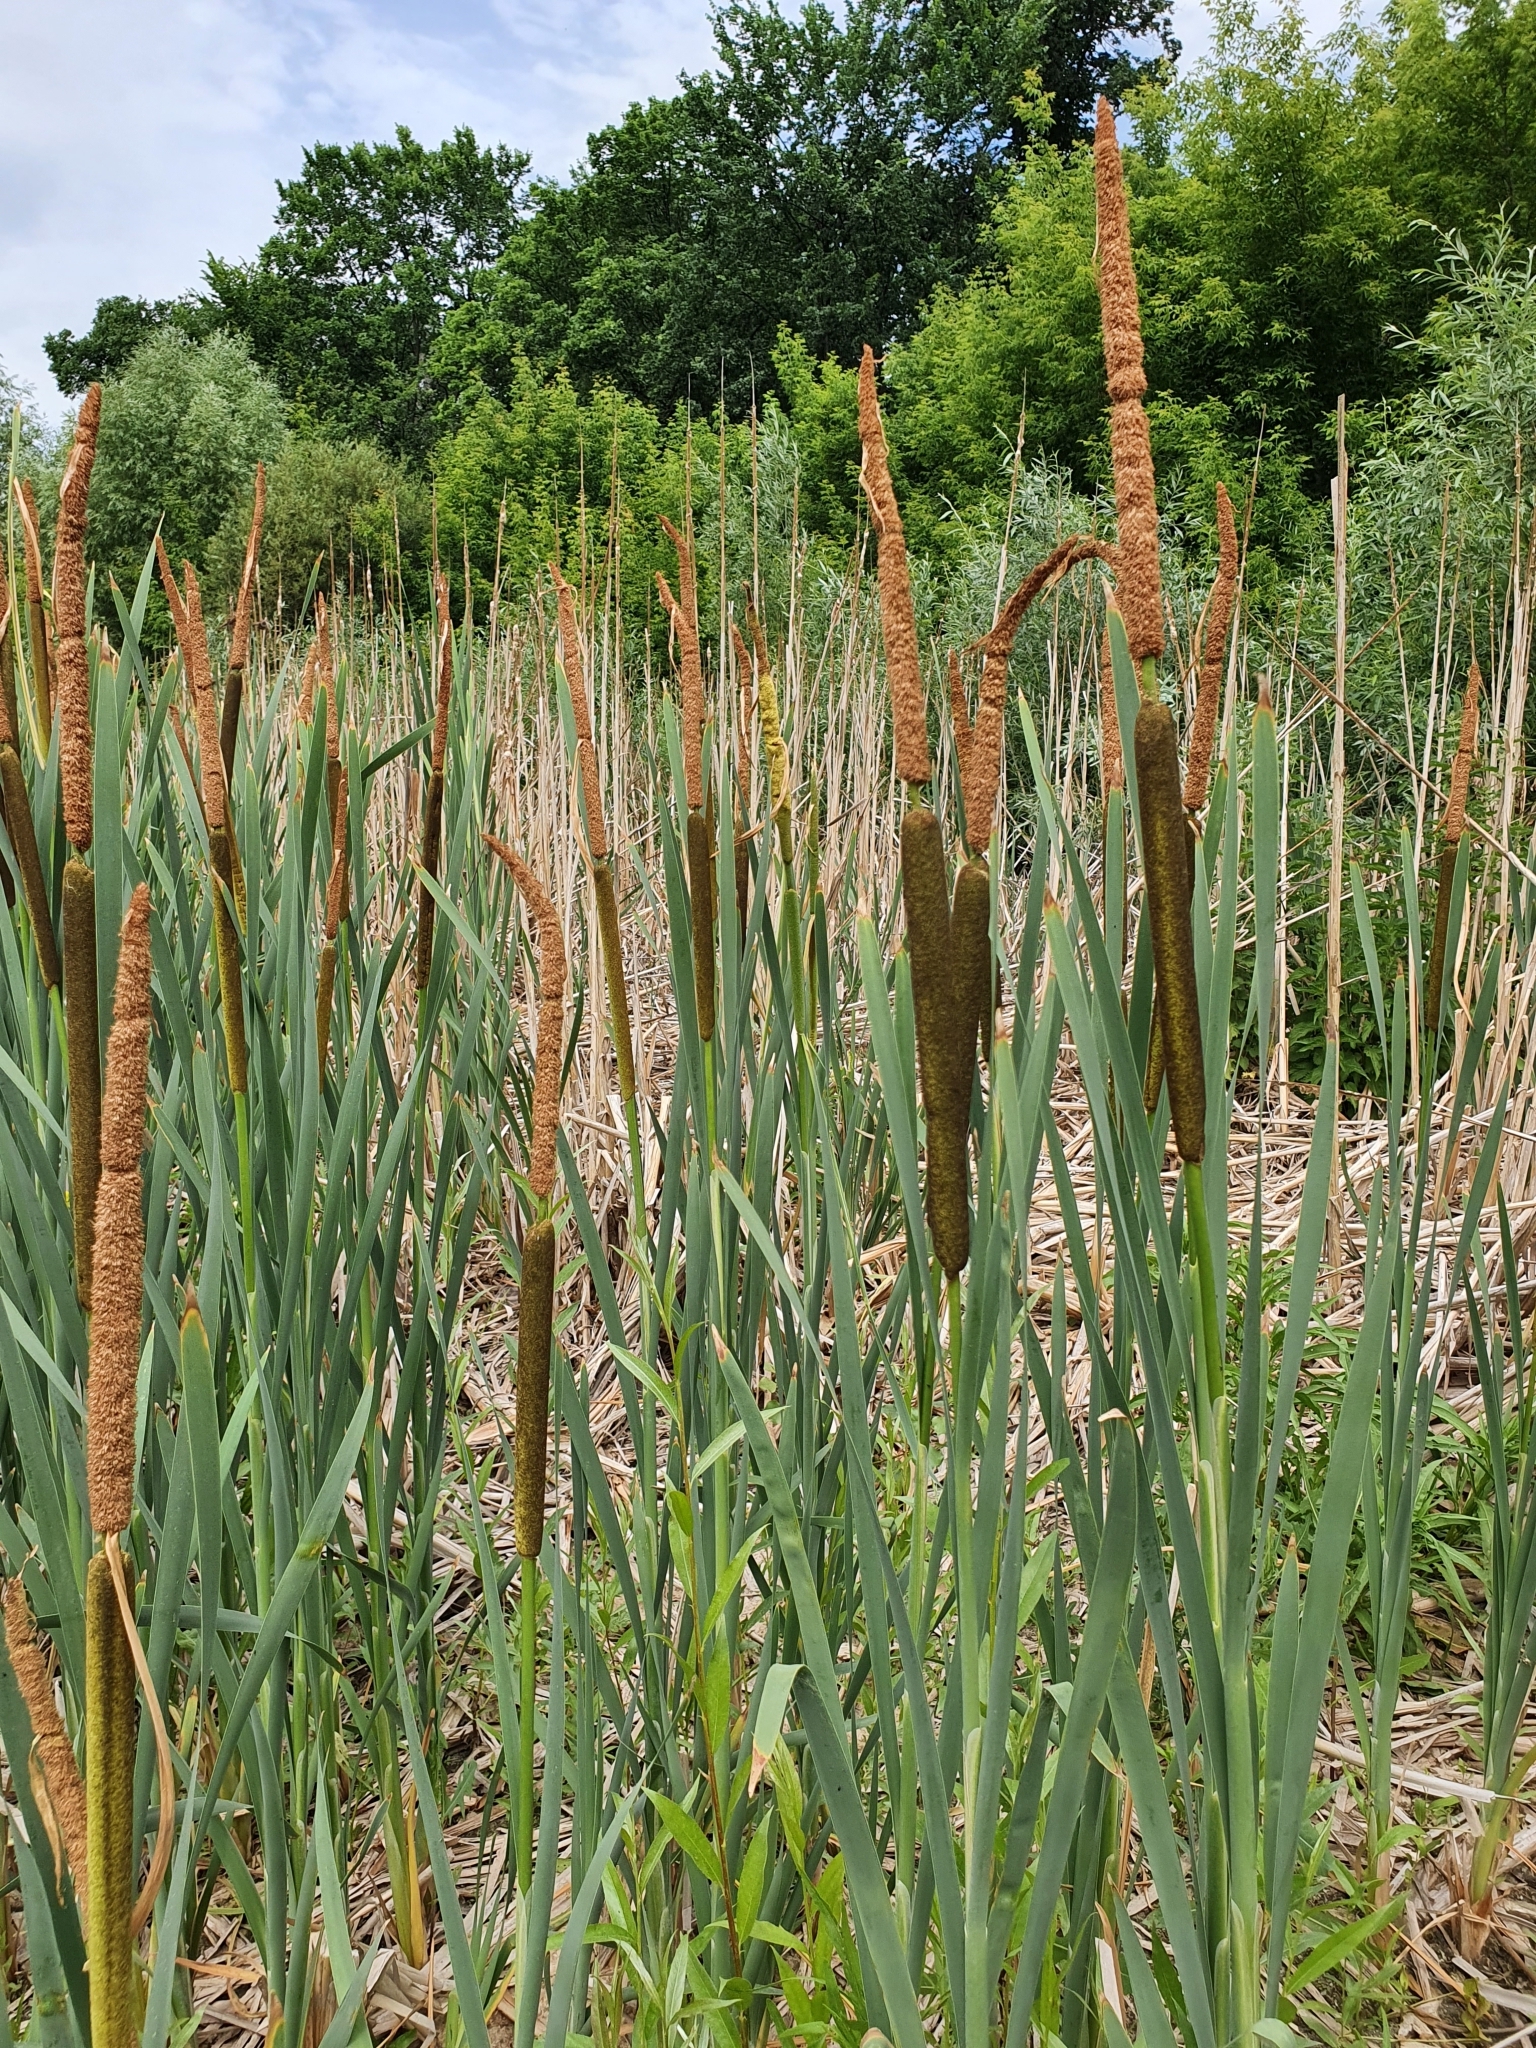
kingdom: Plantae
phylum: Tracheophyta
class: Liliopsida
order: Poales
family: Typhaceae
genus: Typha
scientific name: Typha latifolia
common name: Broadleaf cattail
